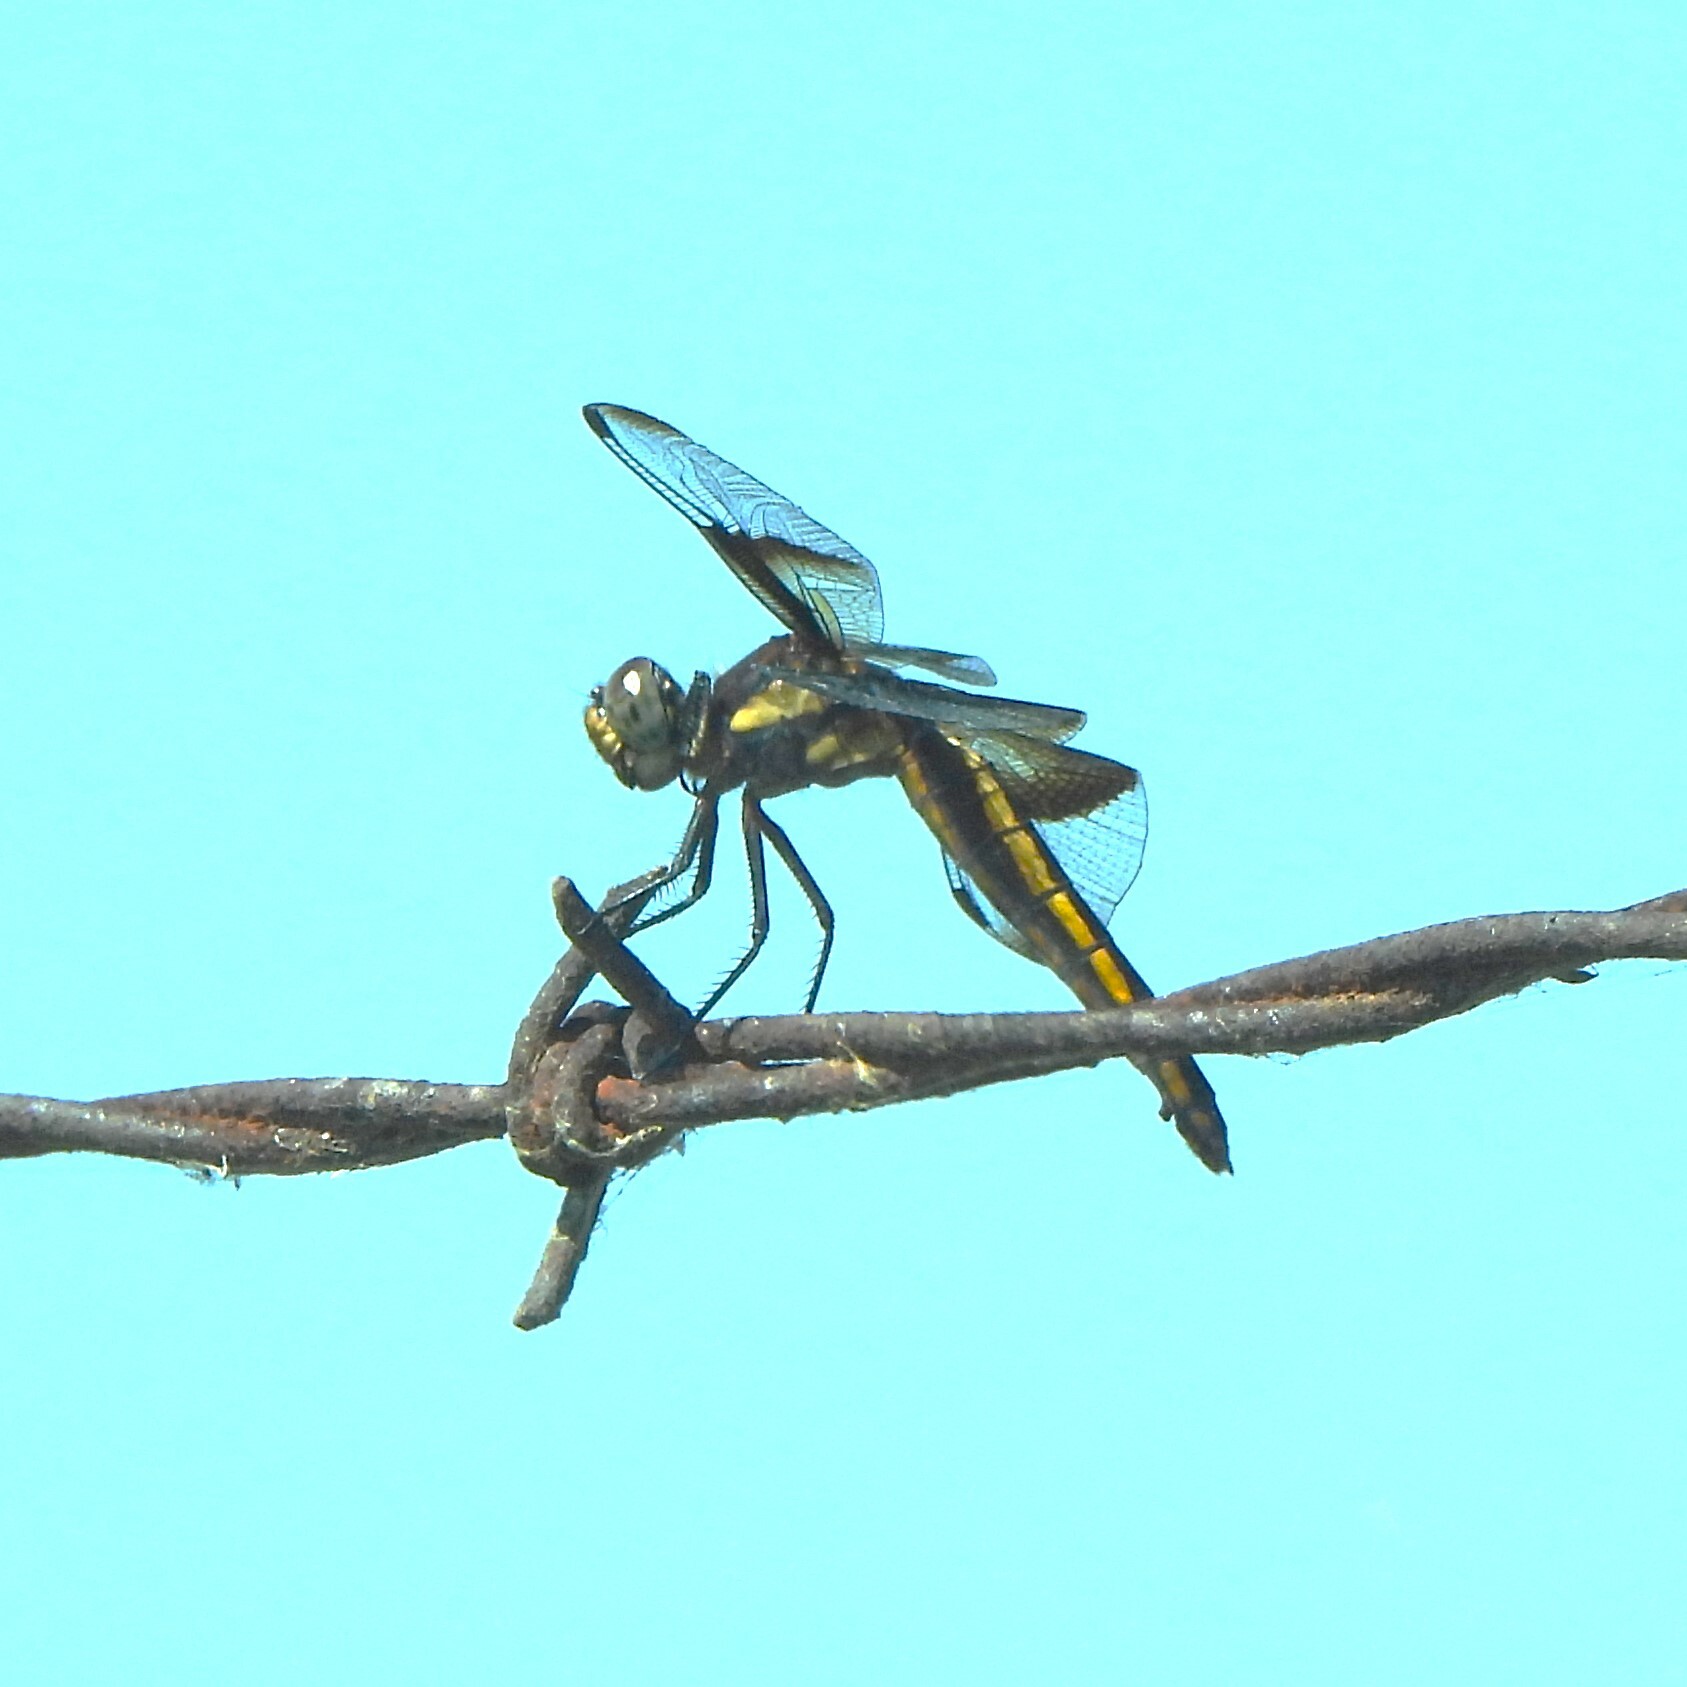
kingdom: Animalia
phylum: Arthropoda
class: Insecta
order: Odonata
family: Libellulidae
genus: Libellula
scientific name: Libellula luctuosa
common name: Widow skimmer
